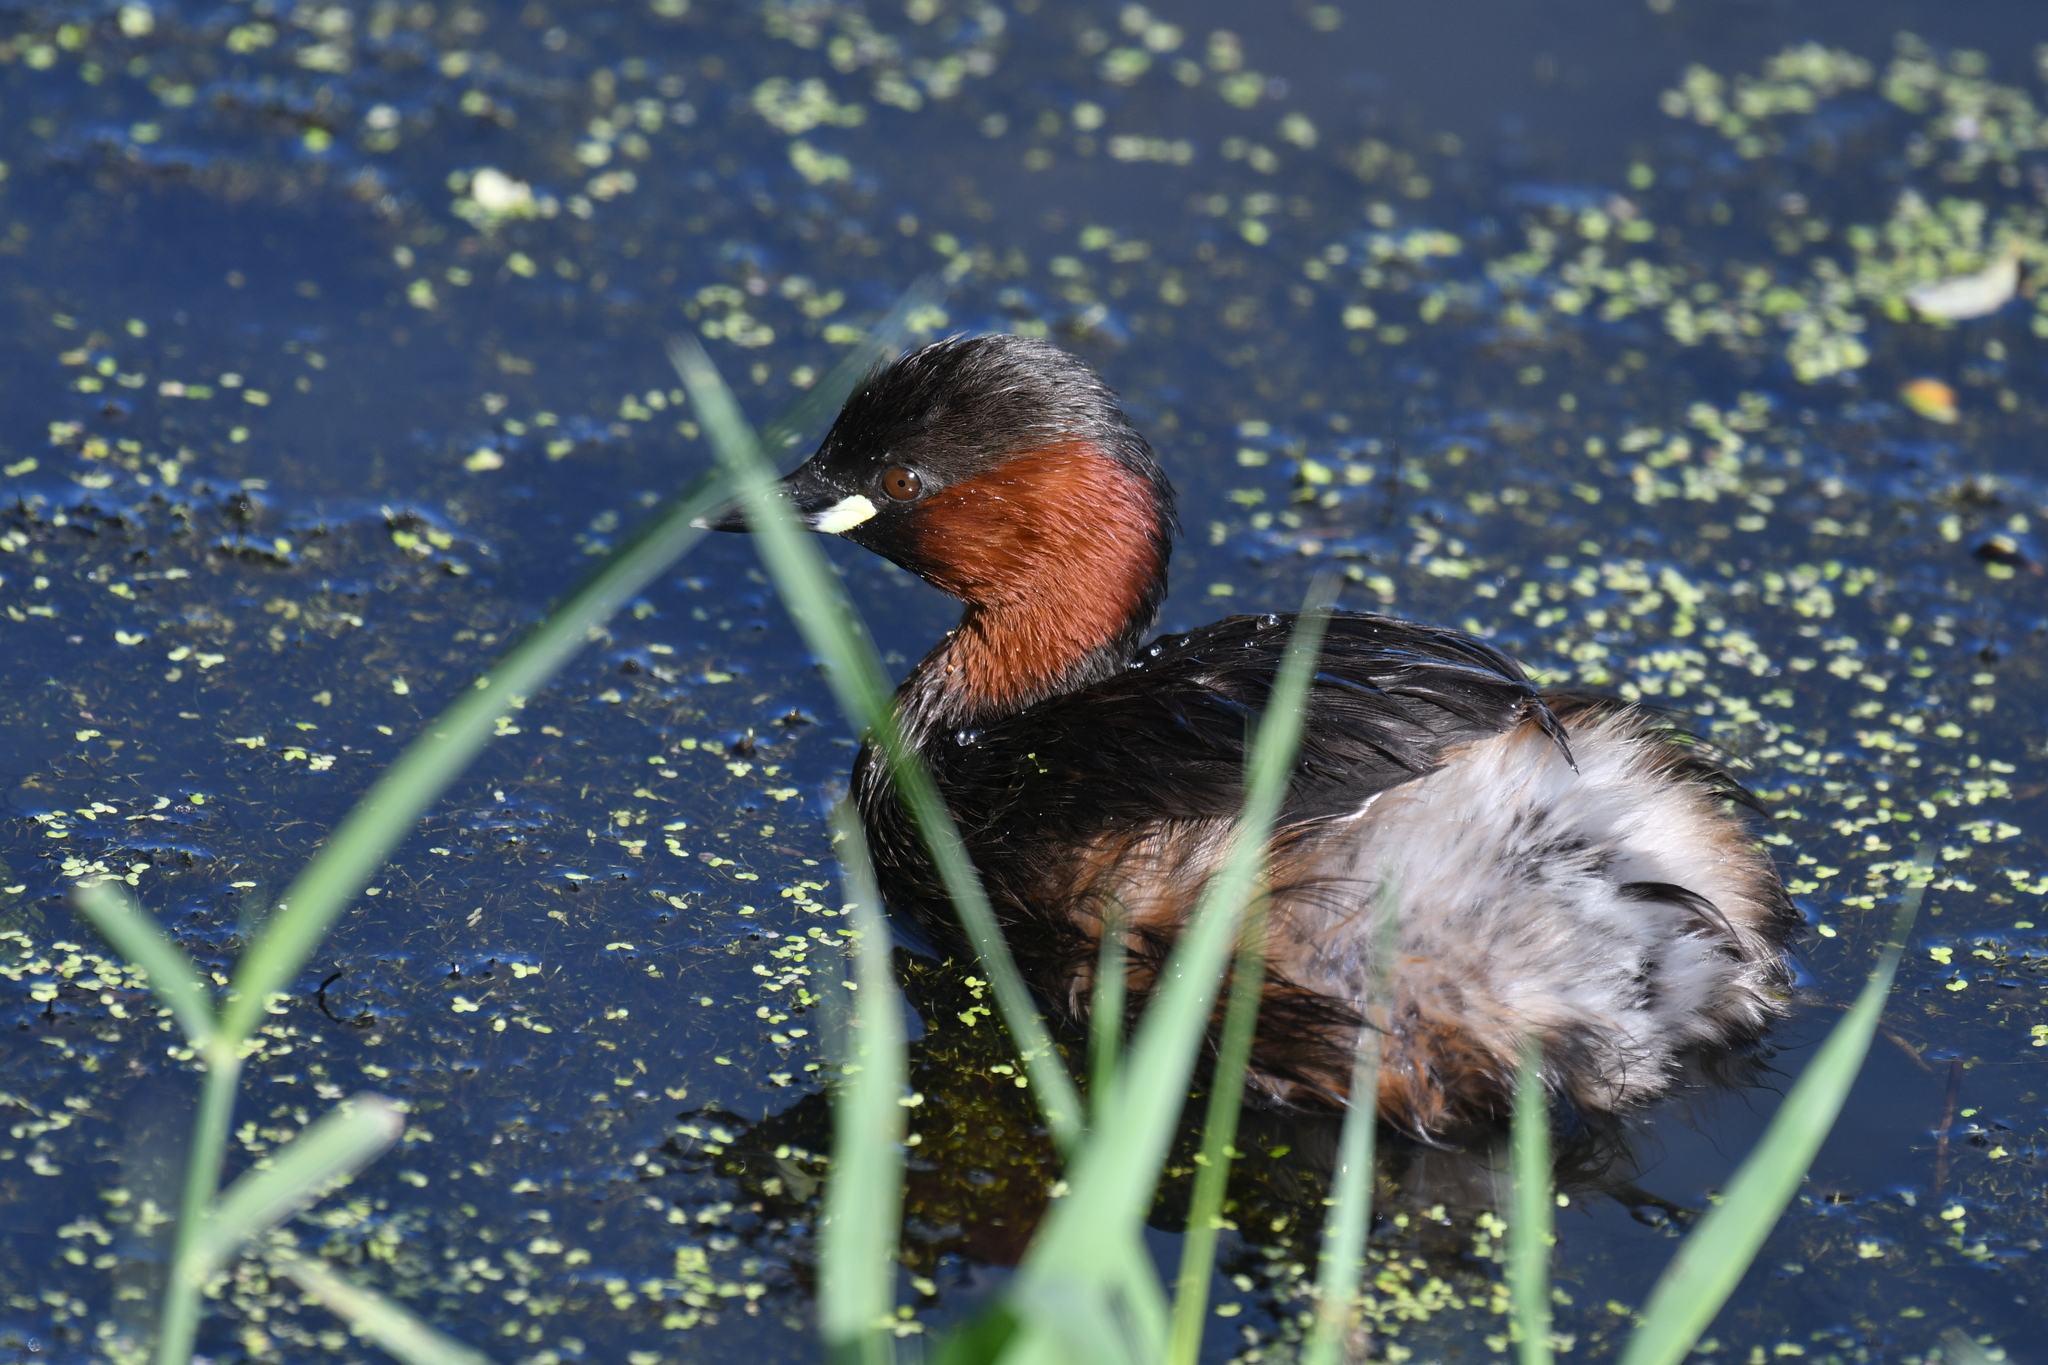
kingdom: Animalia
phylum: Chordata
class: Aves
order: Podicipediformes
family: Podicipedidae
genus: Tachybaptus
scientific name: Tachybaptus ruficollis
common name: Little grebe
